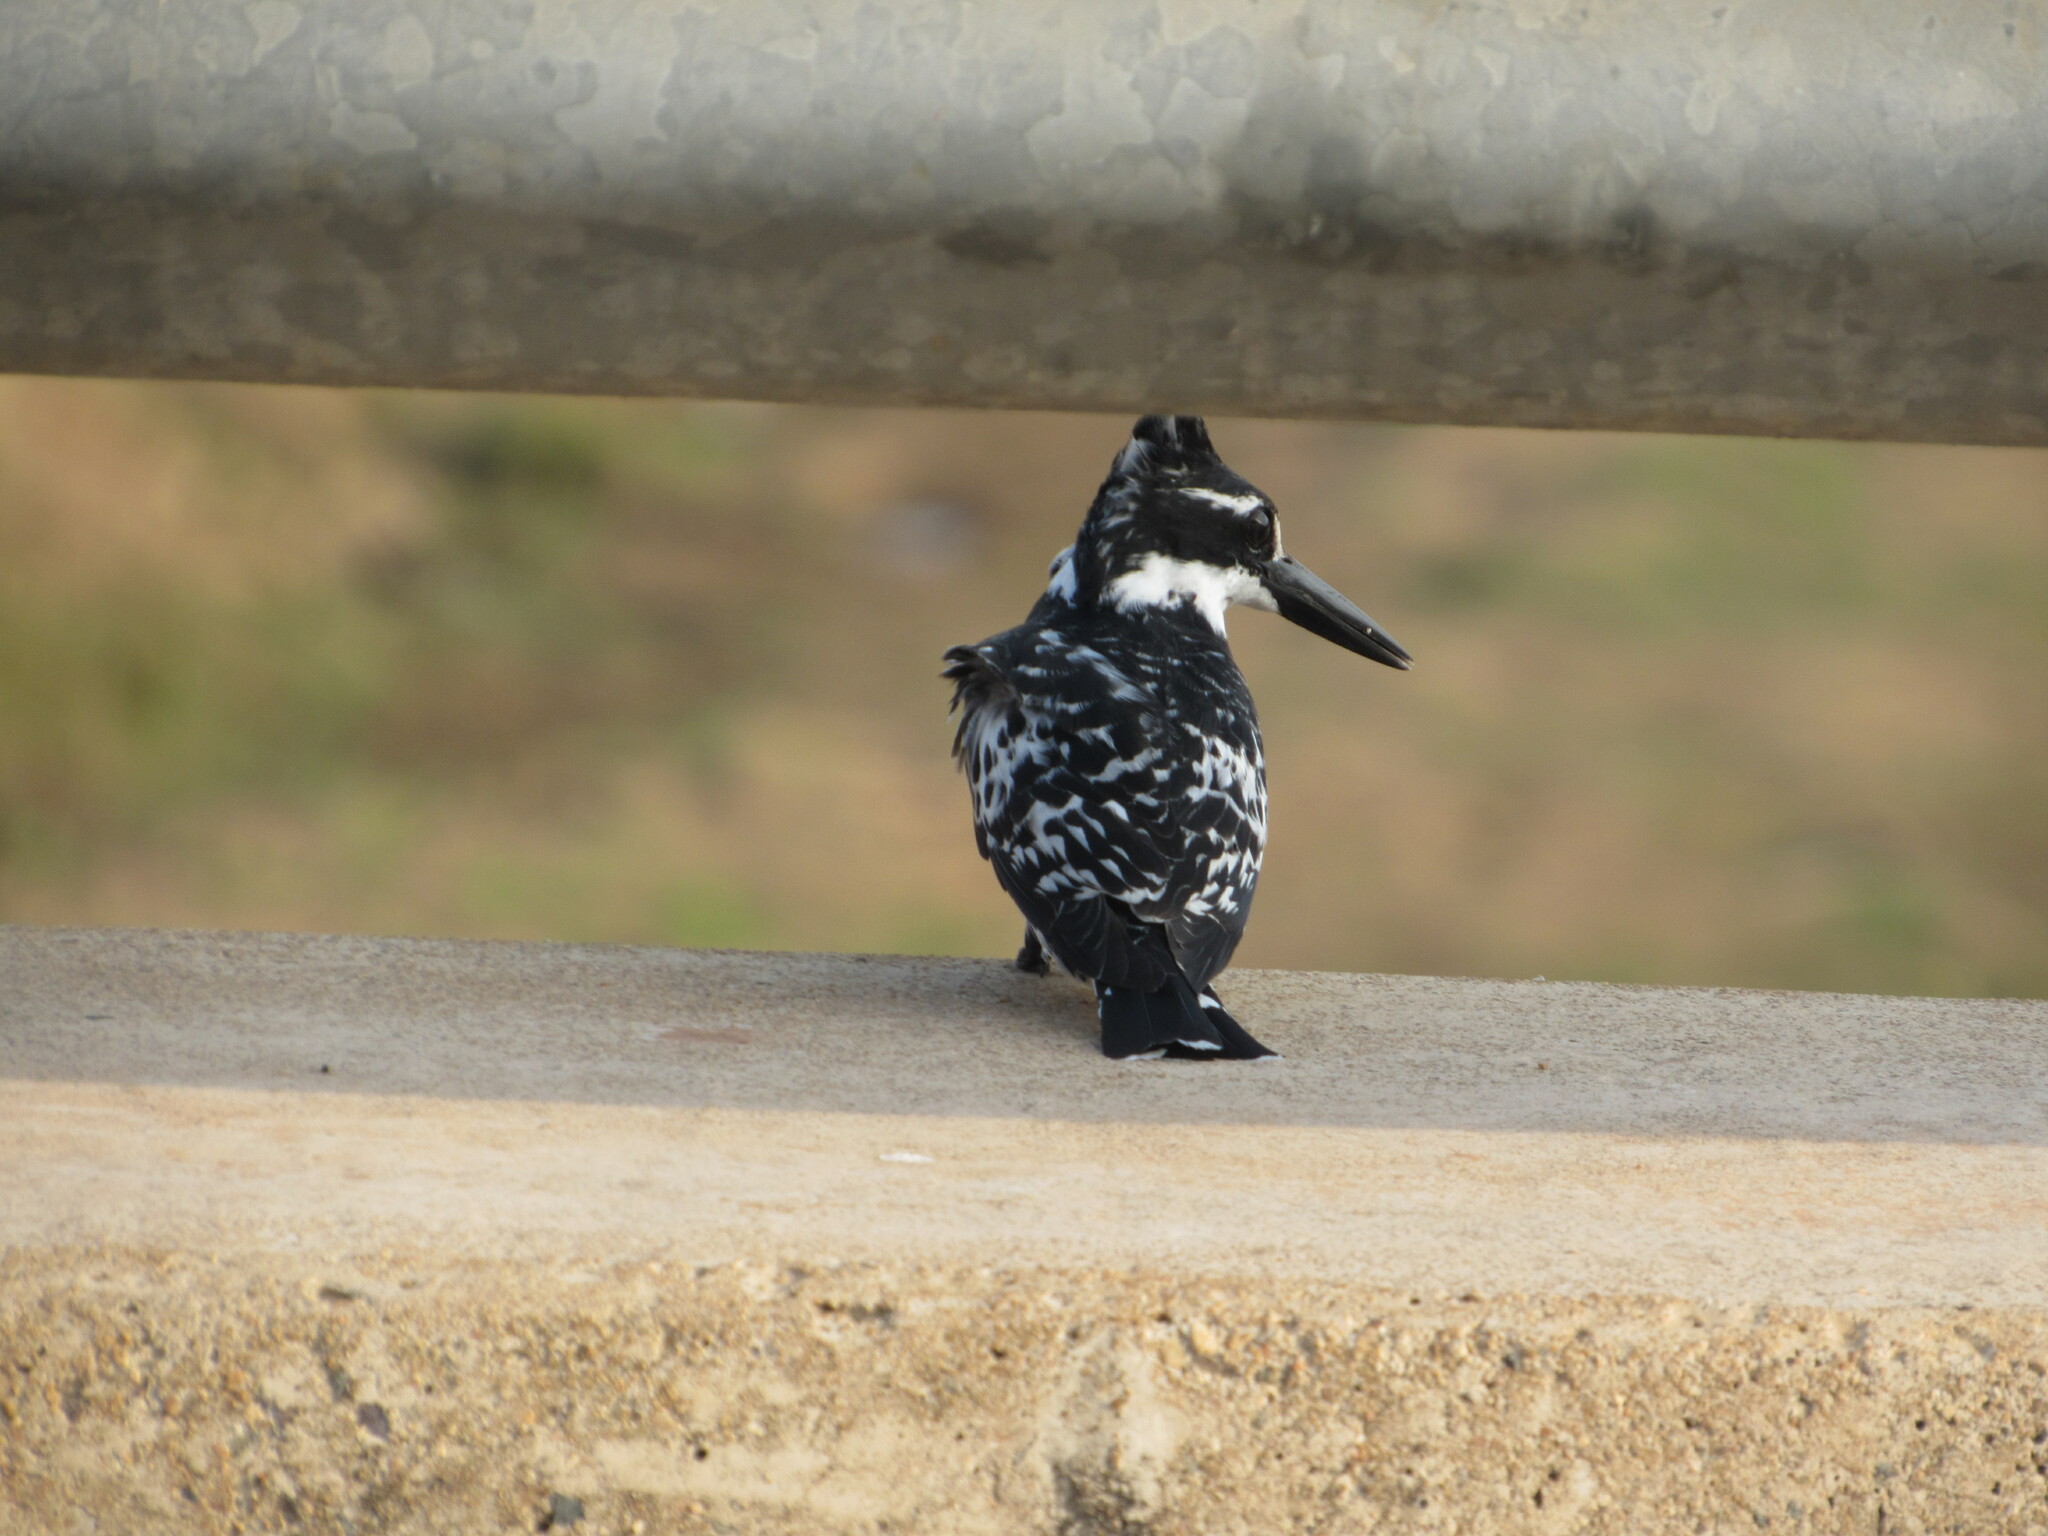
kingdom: Animalia
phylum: Chordata
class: Aves
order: Coraciiformes
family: Alcedinidae
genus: Ceryle
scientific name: Ceryle rudis
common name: Pied kingfisher
